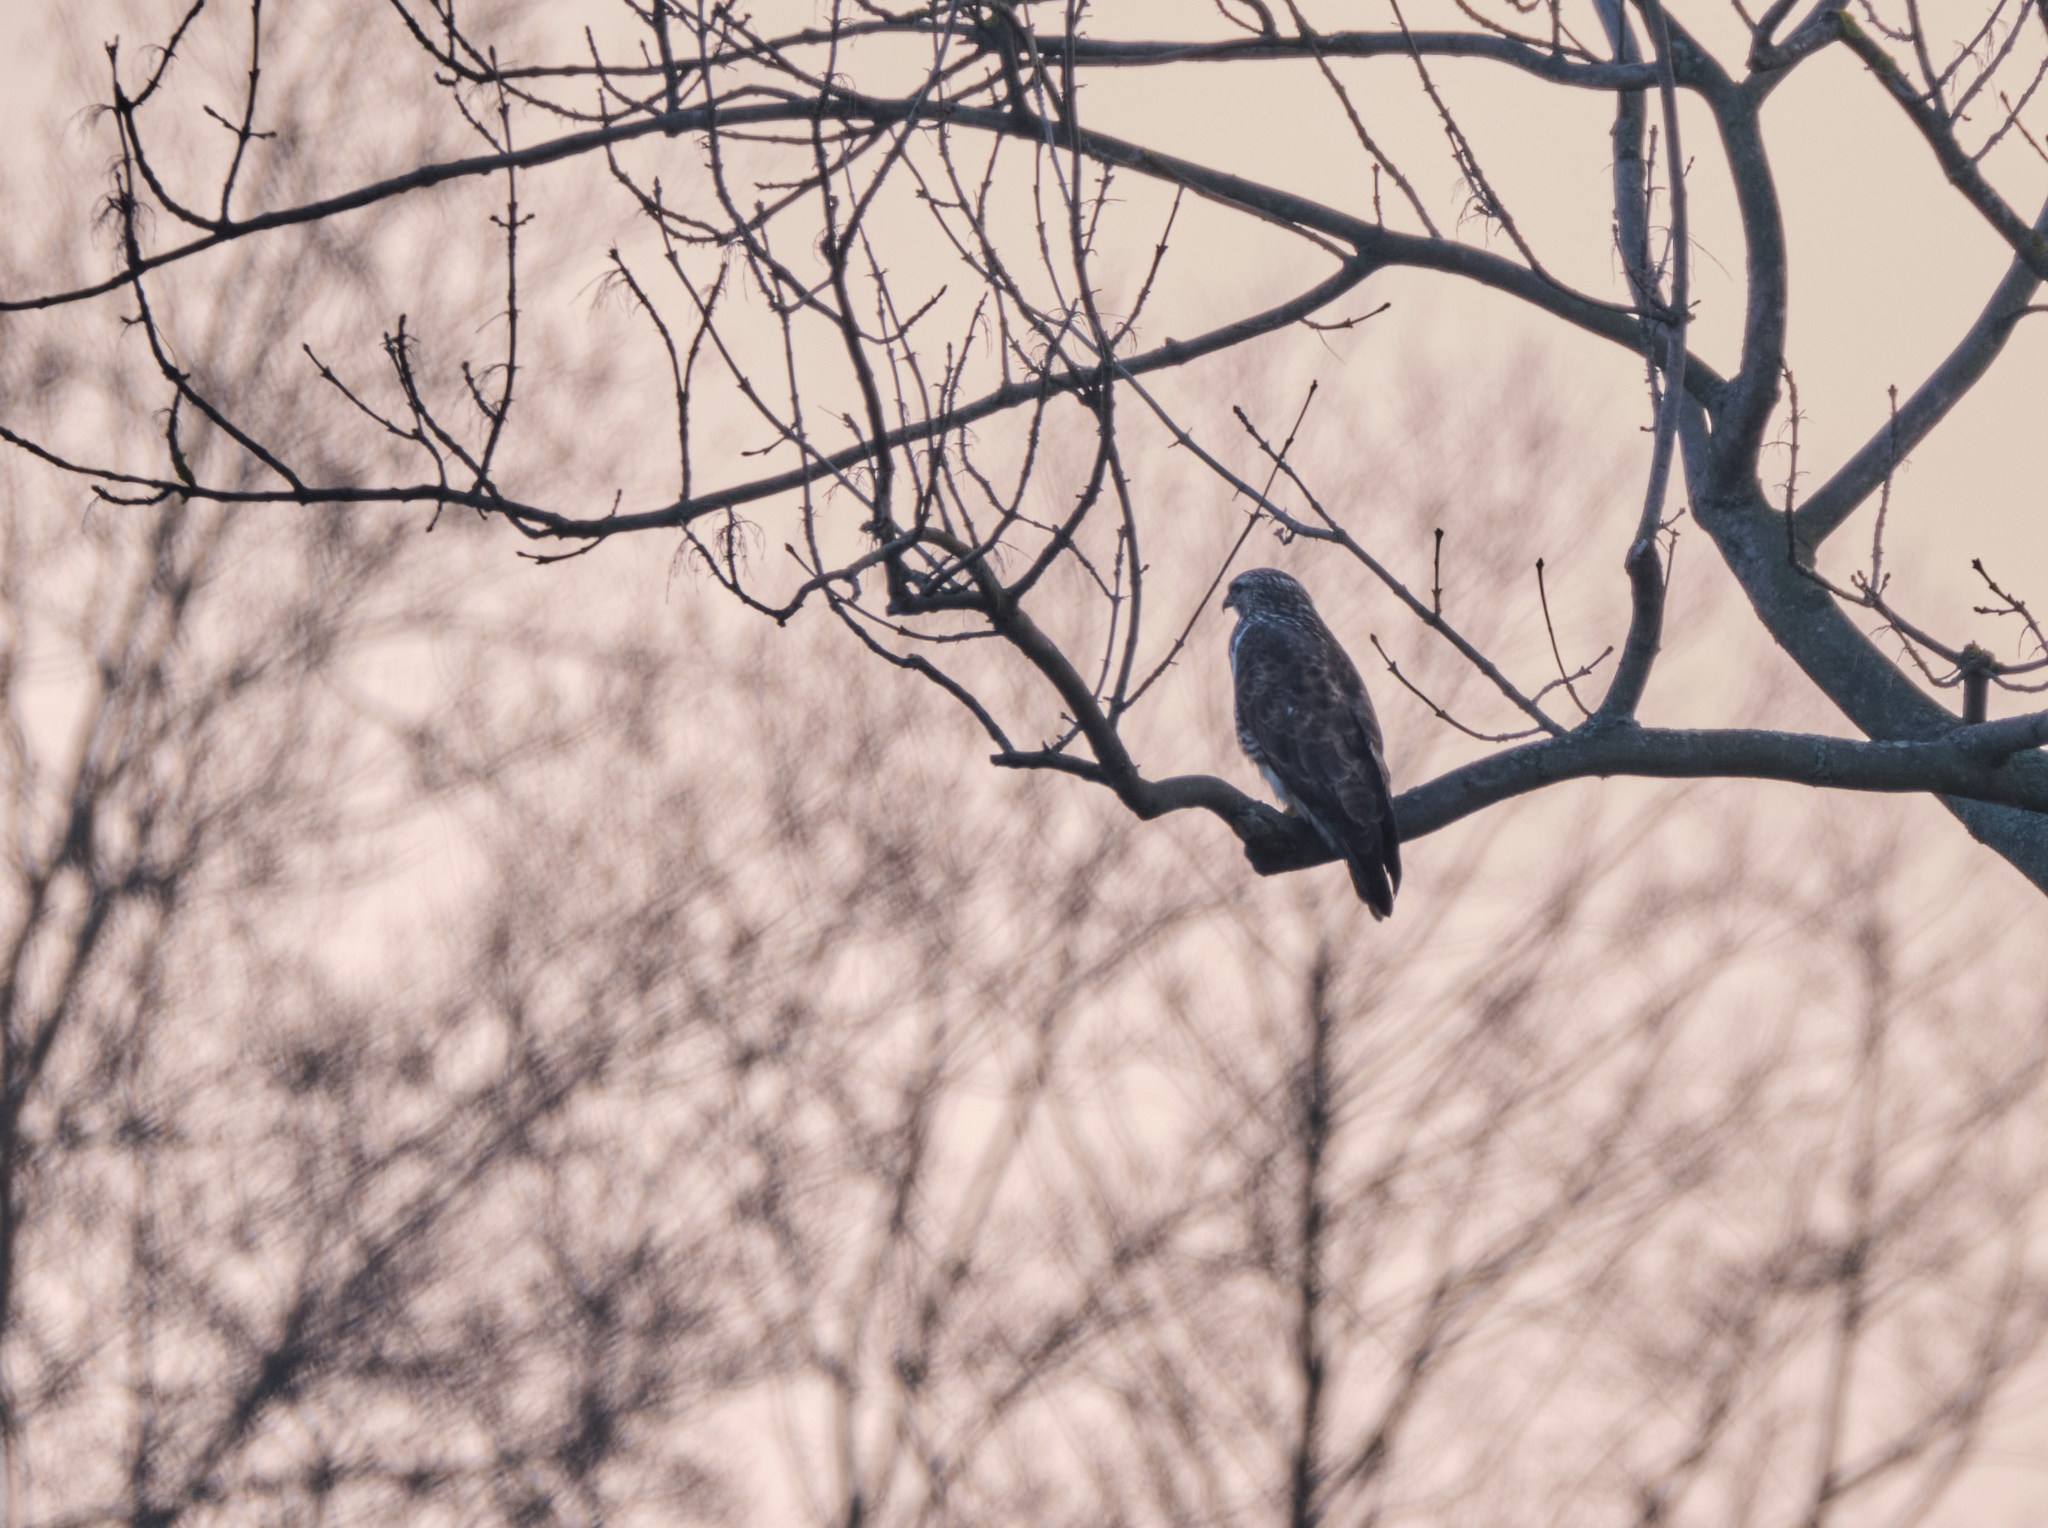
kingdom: Animalia
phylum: Chordata
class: Aves
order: Accipitriformes
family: Accipitridae
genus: Buteo
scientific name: Buteo buteo
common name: Common buzzard
